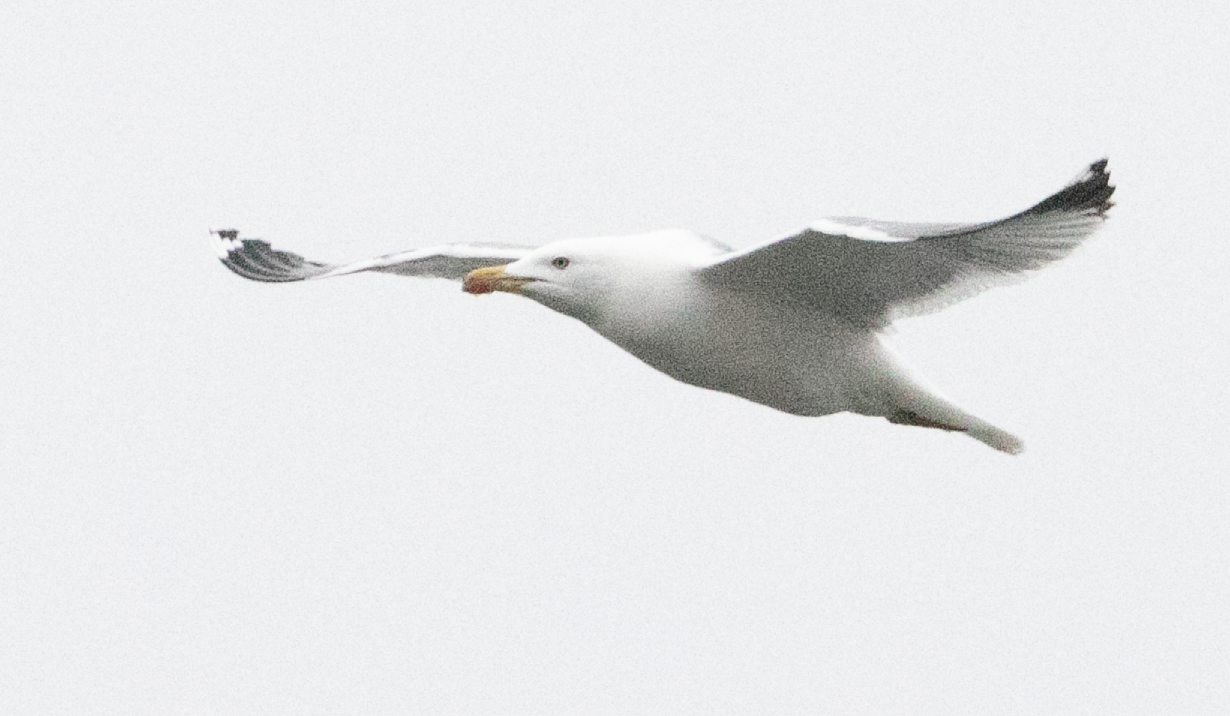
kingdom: Animalia
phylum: Chordata
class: Aves
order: Charadriiformes
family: Laridae
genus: Larus
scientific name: Larus michahellis
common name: Yellow-legged gull
